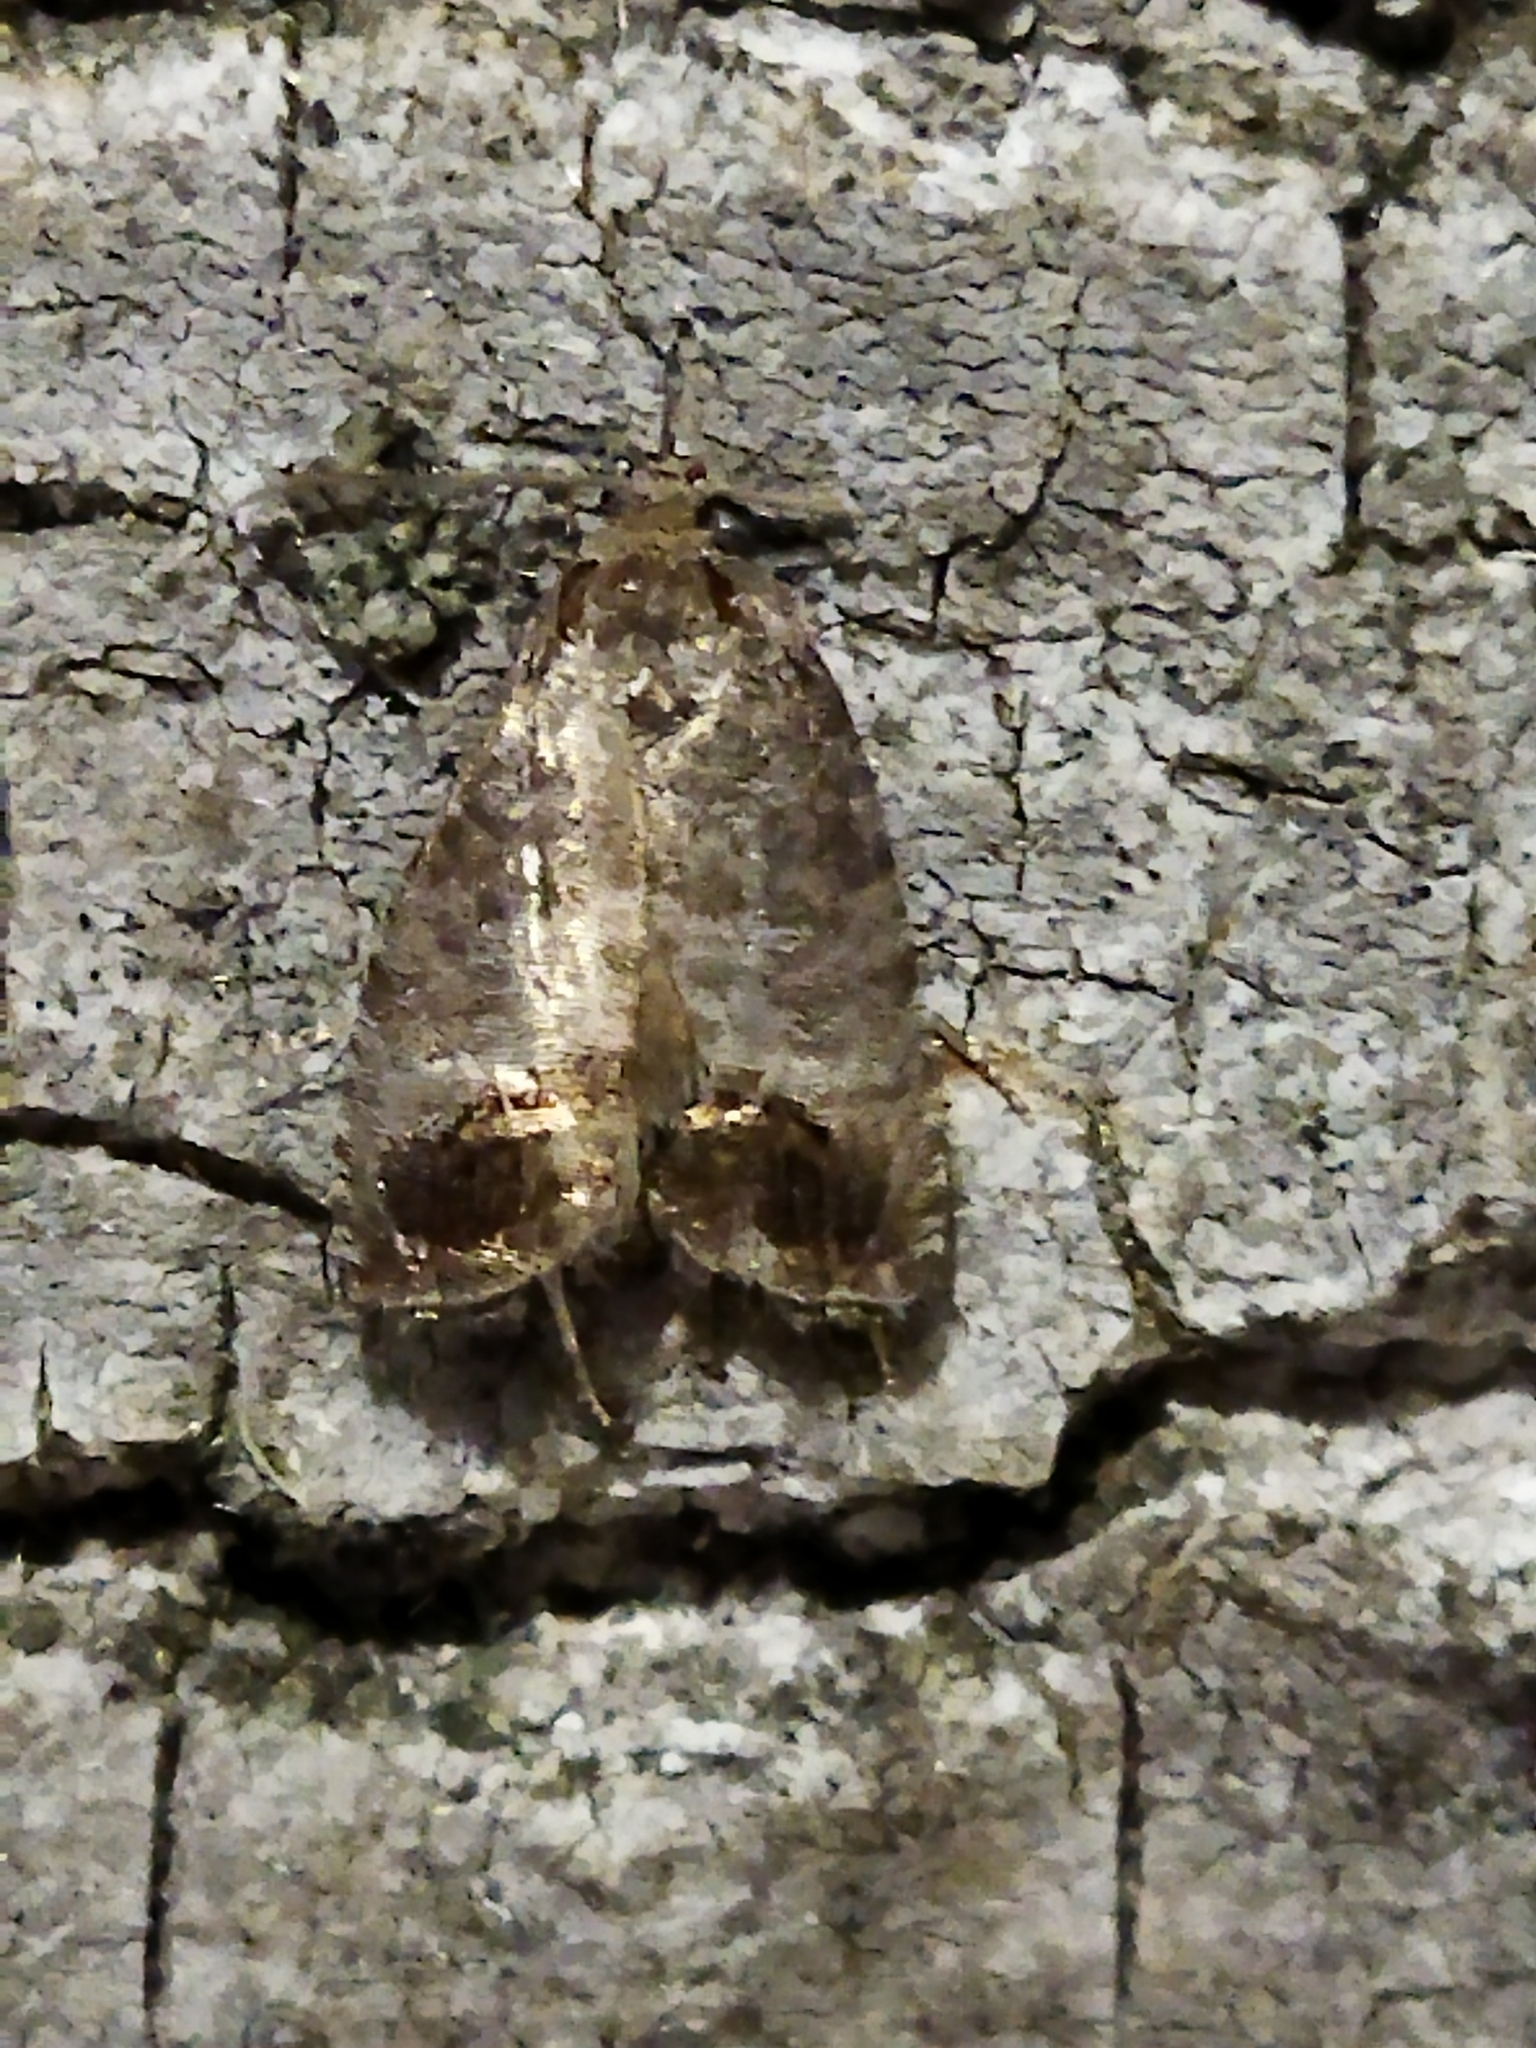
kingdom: Animalia
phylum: Arthropoda
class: Insecta
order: Lepidoptera
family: Tortricidae
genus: Cydia
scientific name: Cydia pomonella
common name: Codling moth
